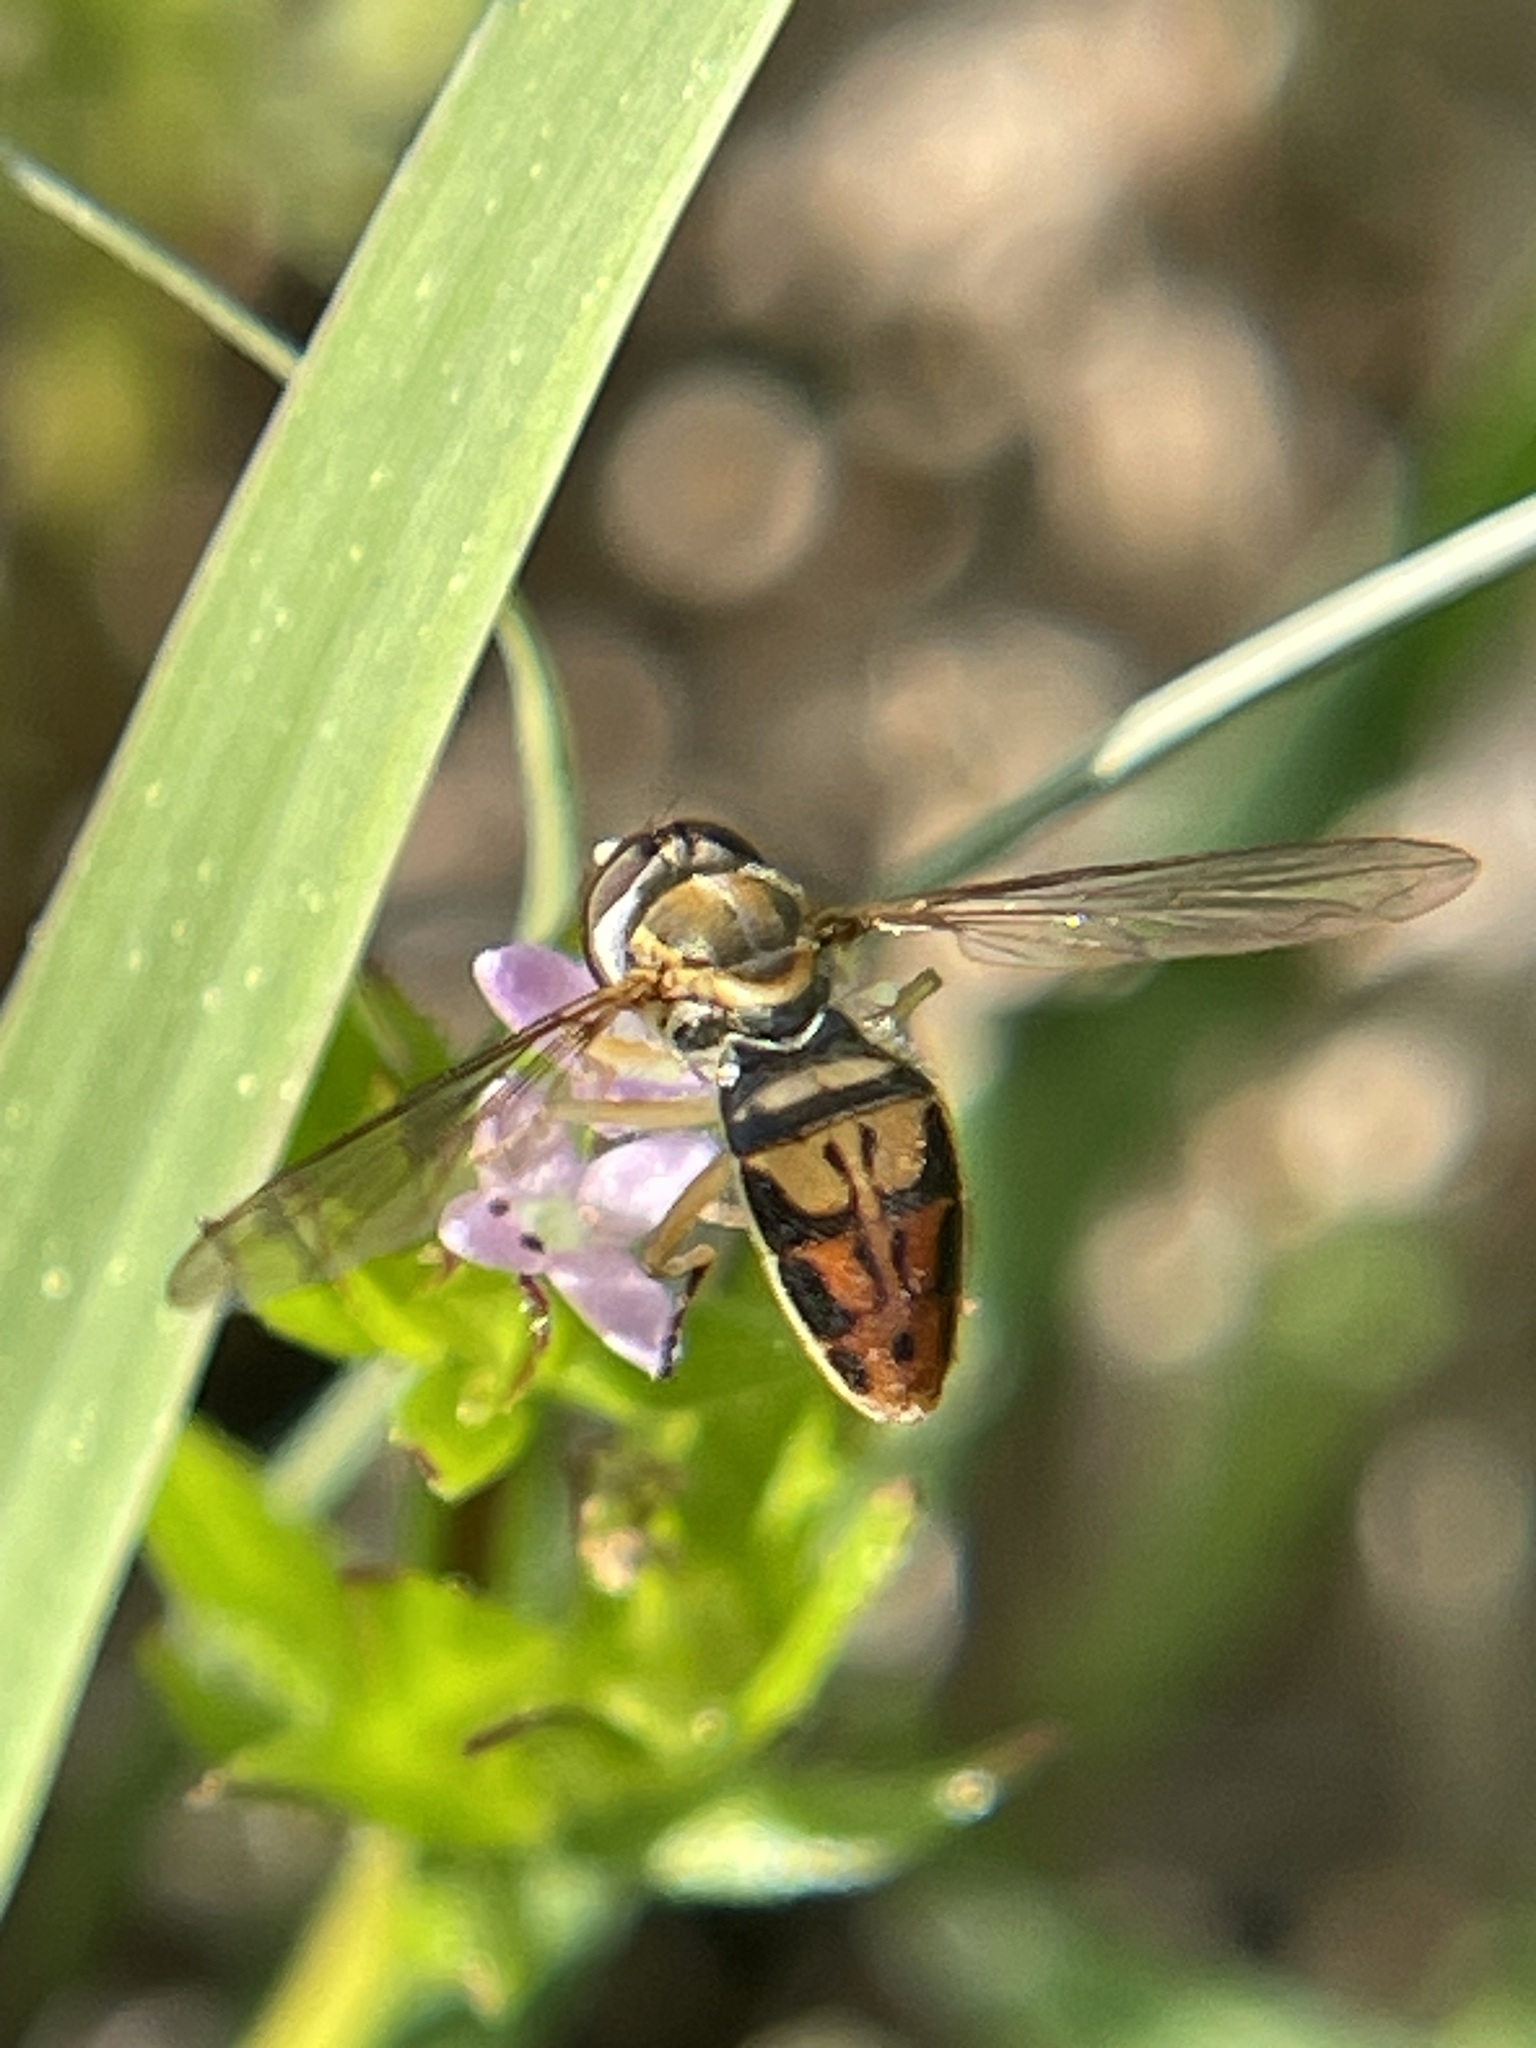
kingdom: Animalia
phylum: Arthropoda
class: Insecta
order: Diptera
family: Syrphidae
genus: Toxomerus
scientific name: Toxomerus marginatus
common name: Syrphid fly
